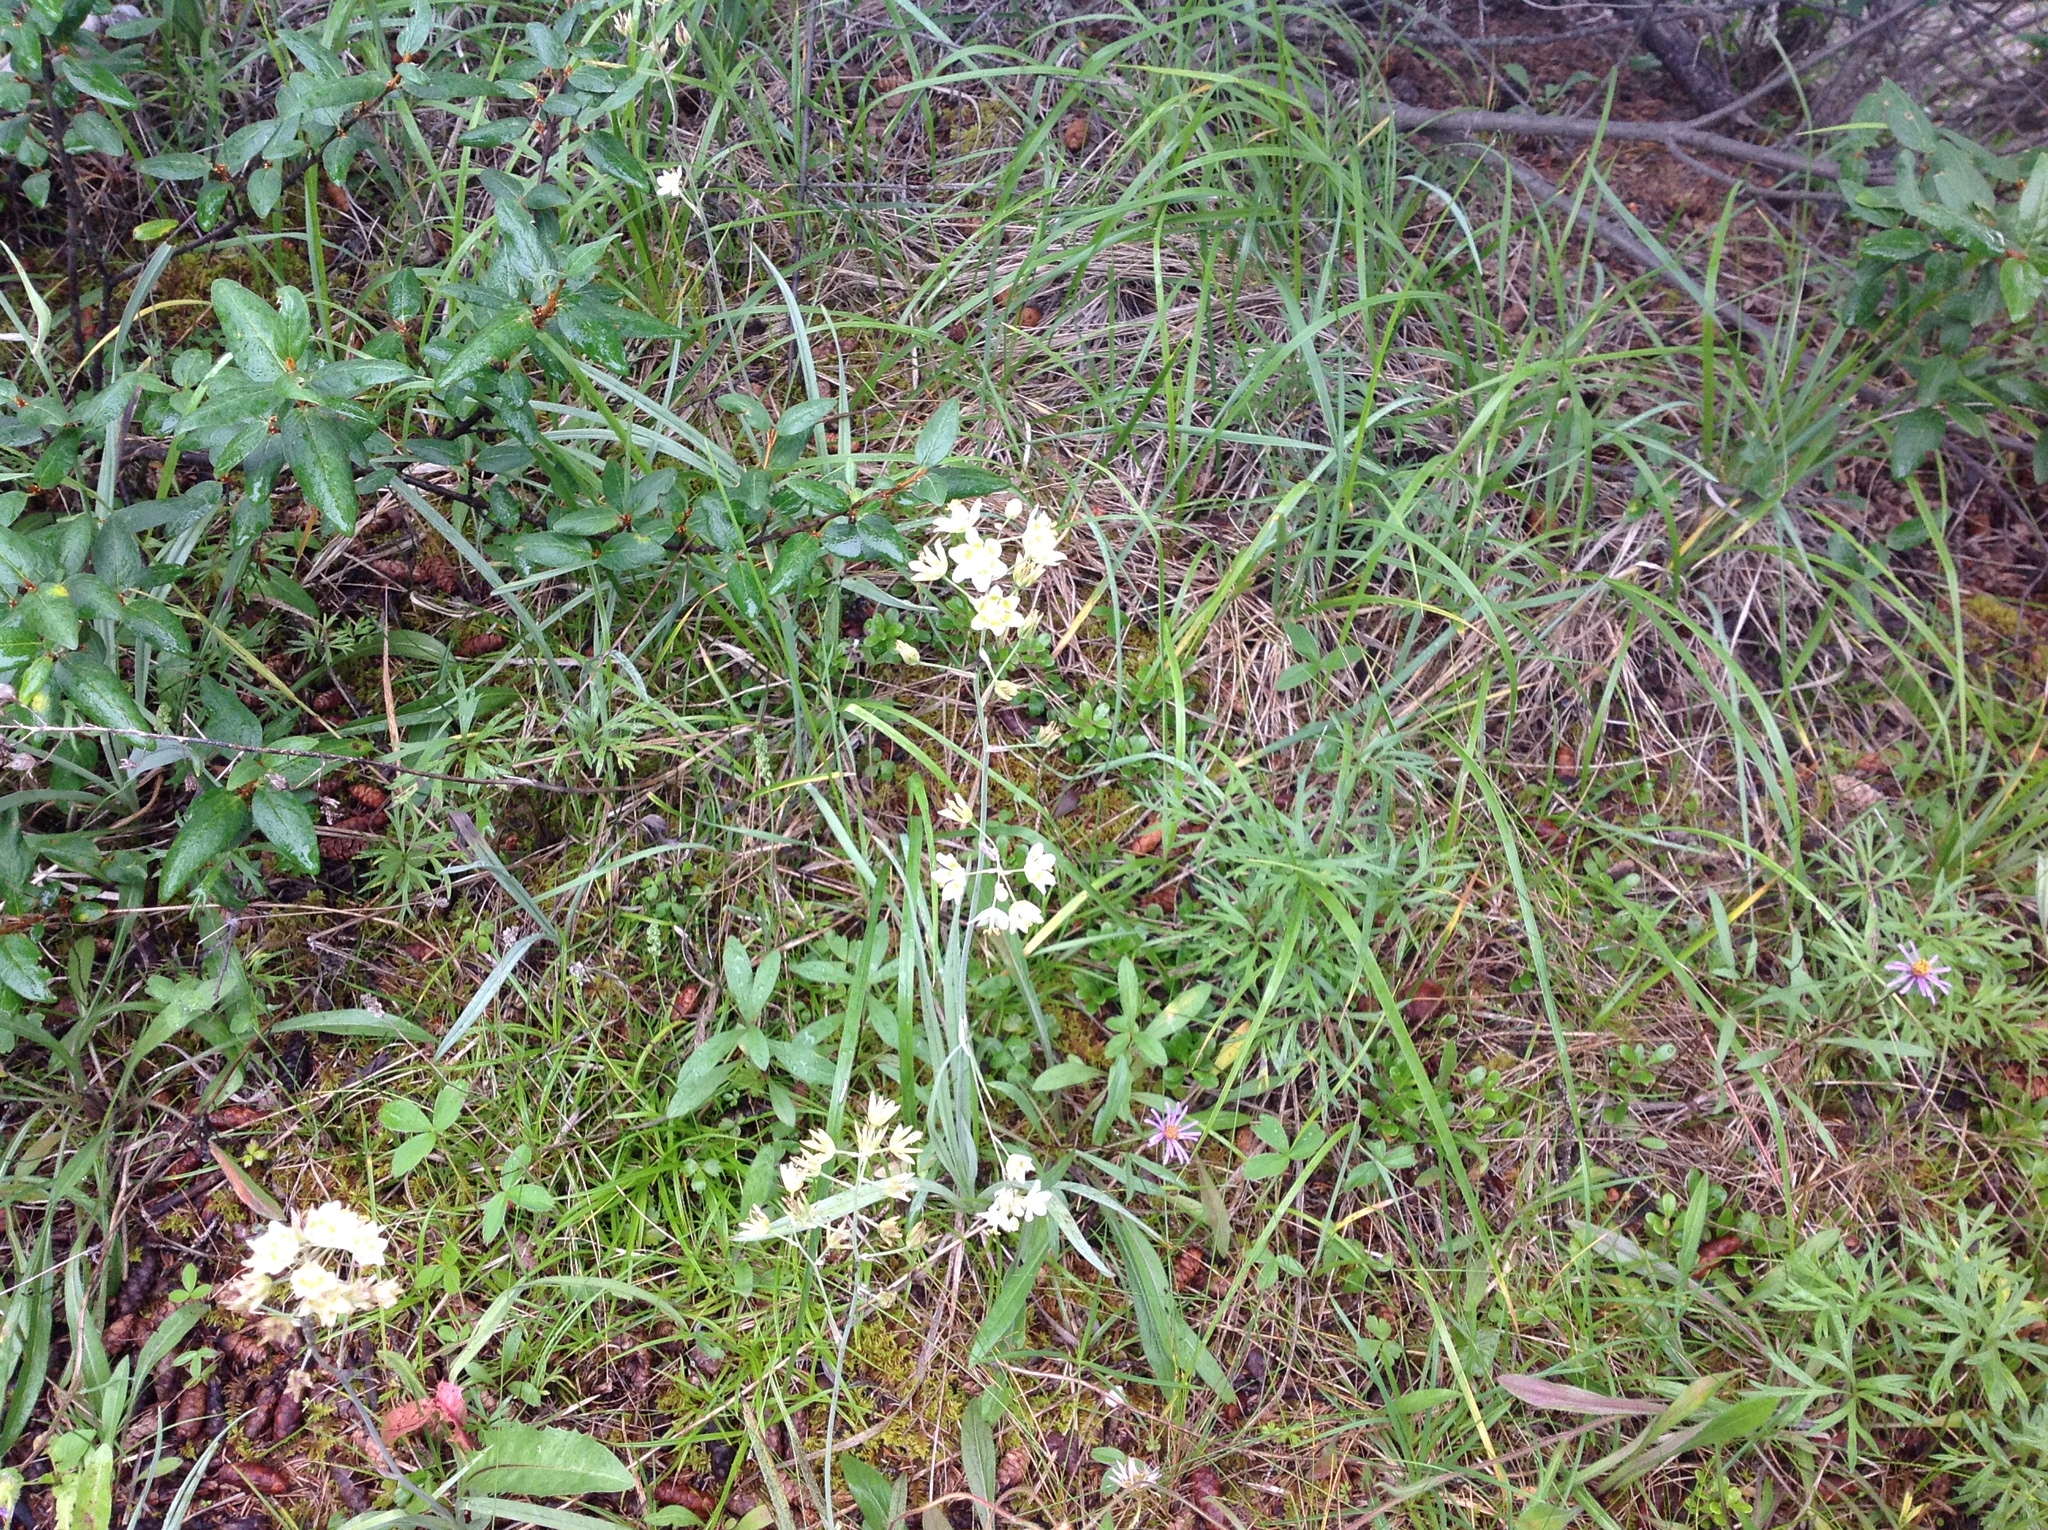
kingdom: Plantae
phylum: Tracheophyta
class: Liliopsida
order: Liliales
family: Melanthiaceae
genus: Anticlea
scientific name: Anticlea elegans
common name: Mountain death camas
